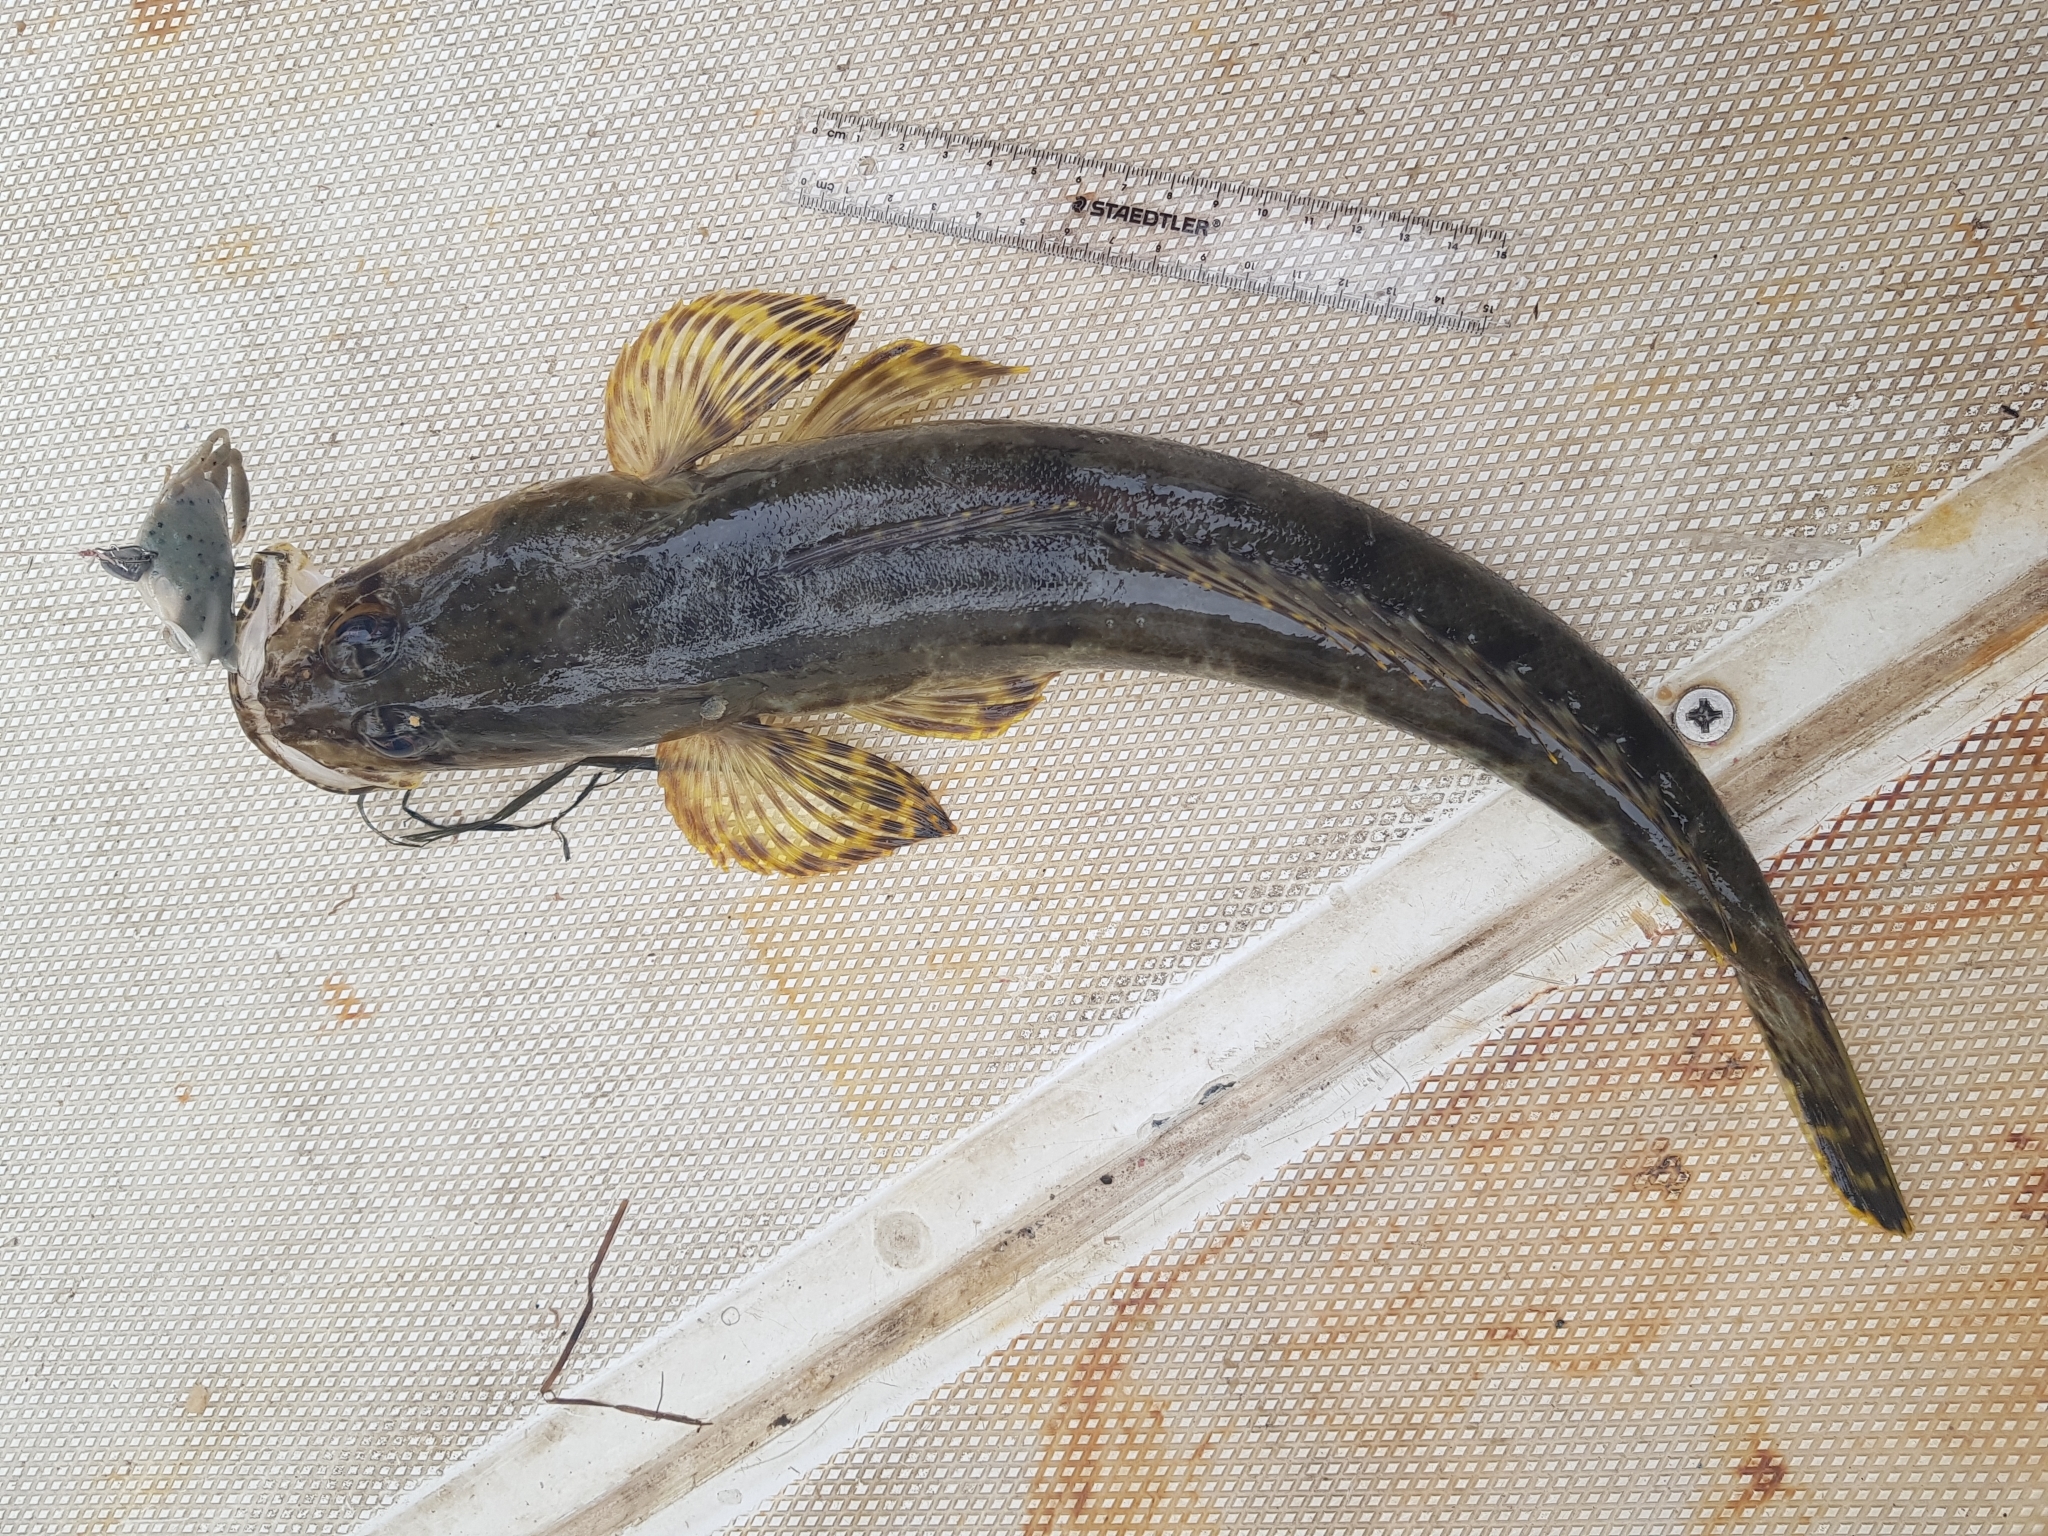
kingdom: Animalia
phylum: Chordata
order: Scorpaeniformes
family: Platycephalidae
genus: Platycephalus
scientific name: Platycephalus laevigatus
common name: Rock flathead
